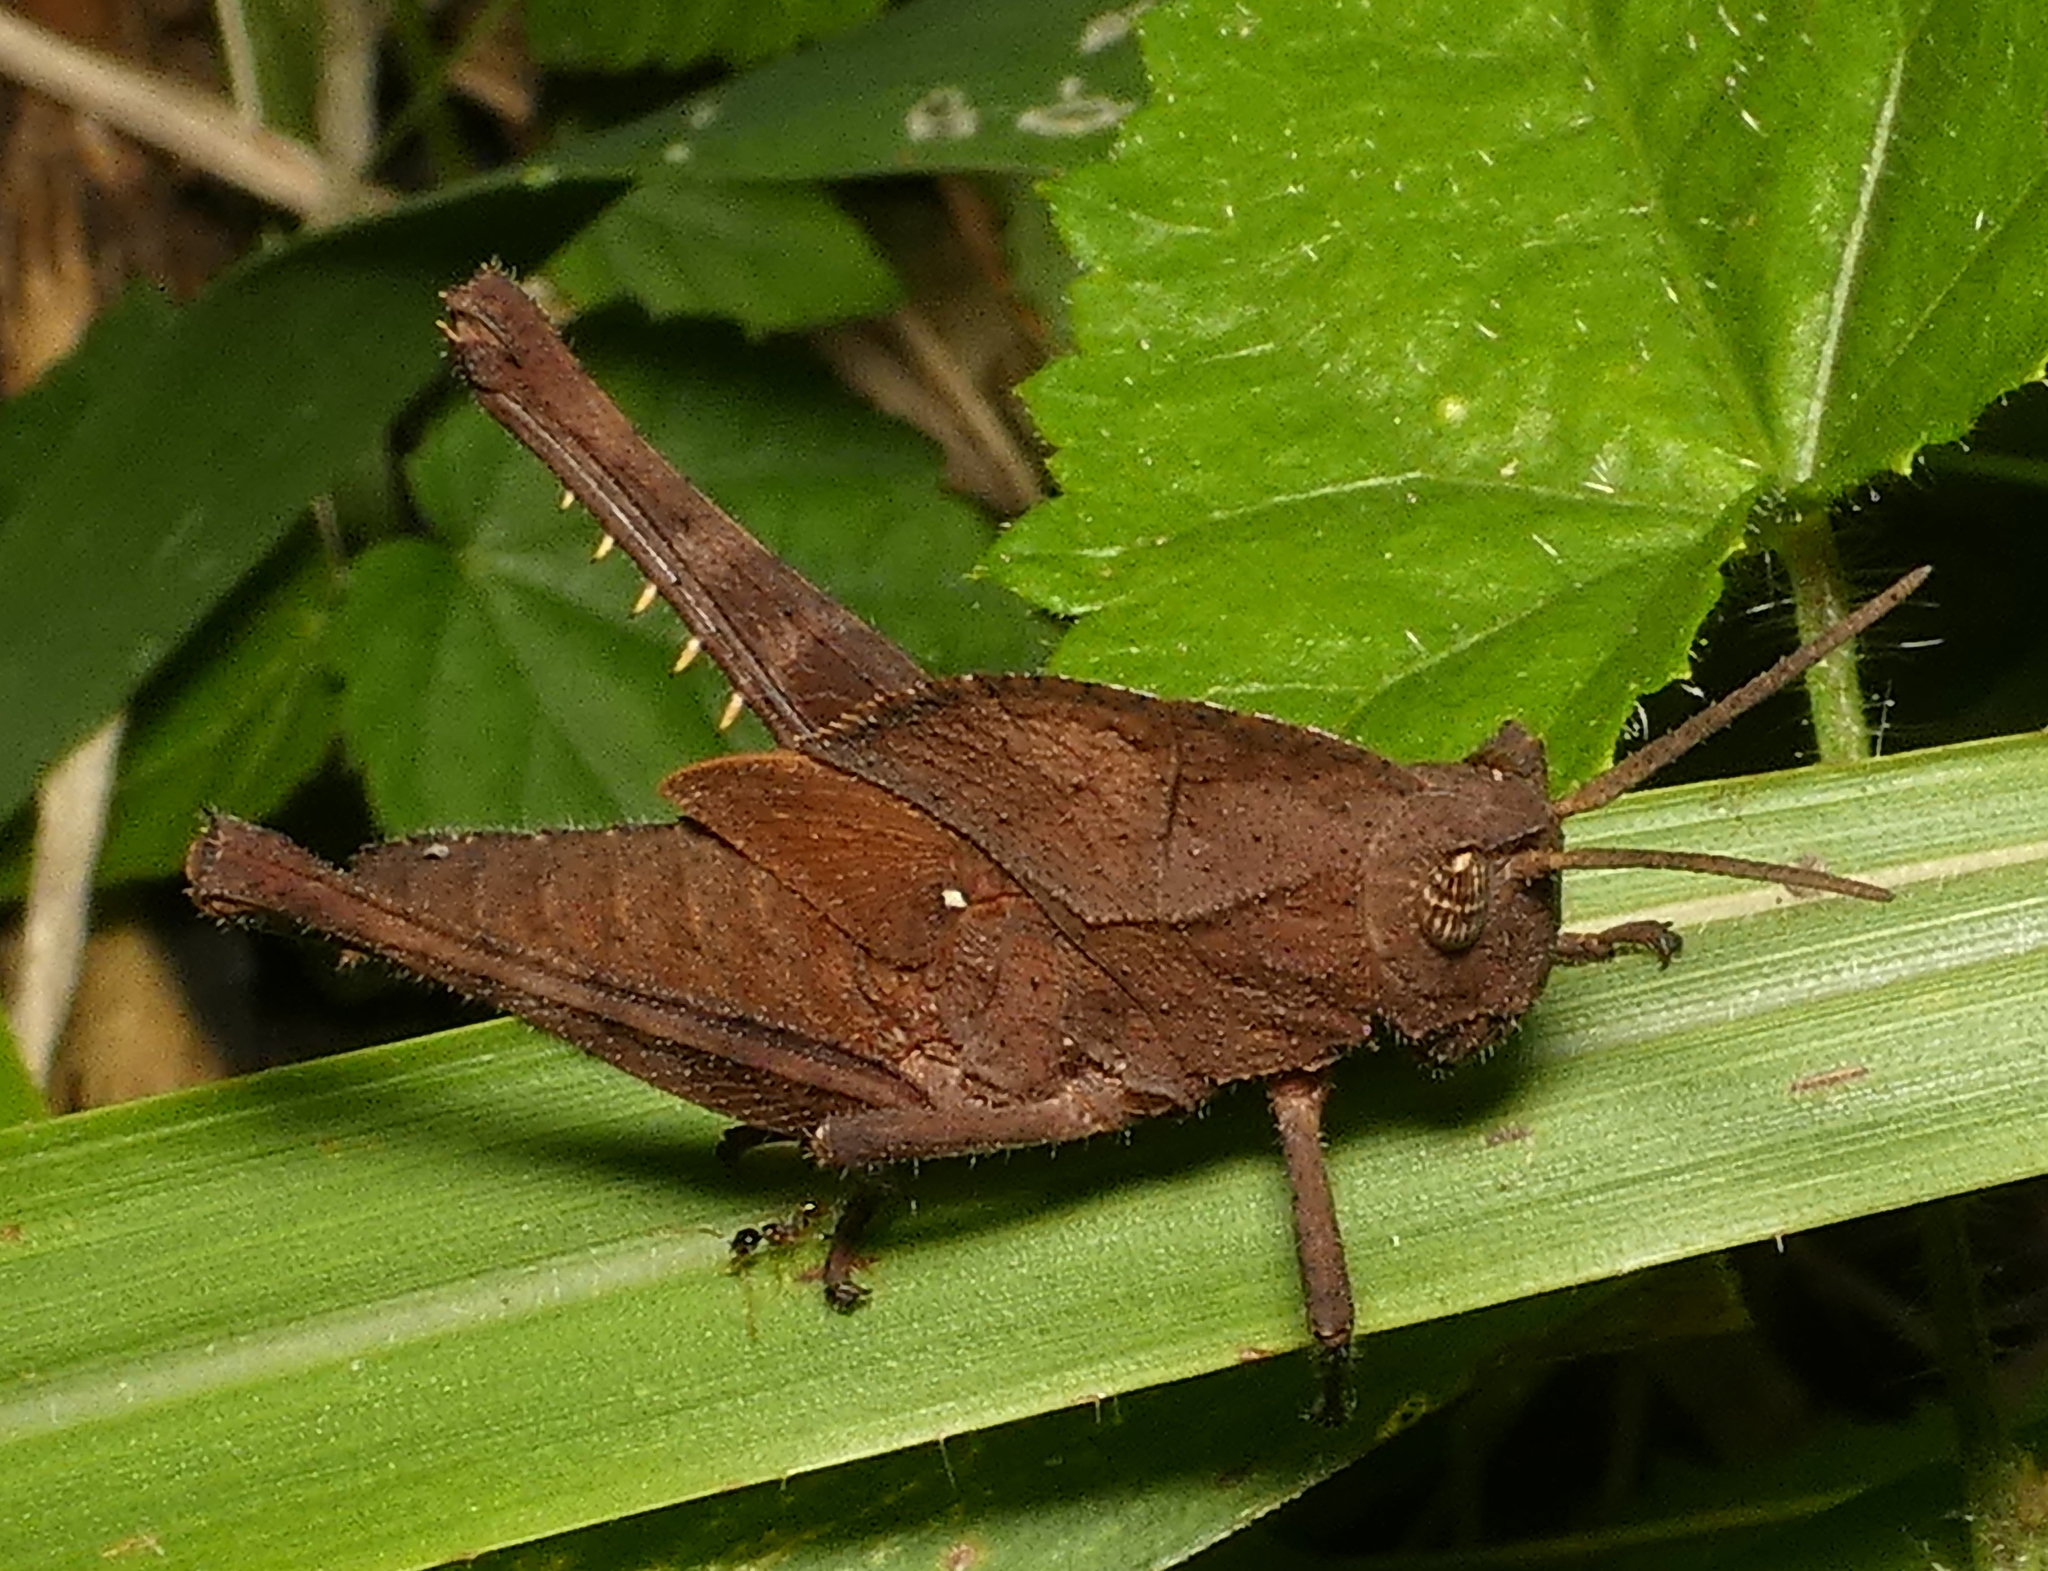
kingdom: Animalia
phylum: Arthropoda
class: Insecta
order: Orthoptera
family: Romaleidae
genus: Xyleus
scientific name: Xyleus discoideus
